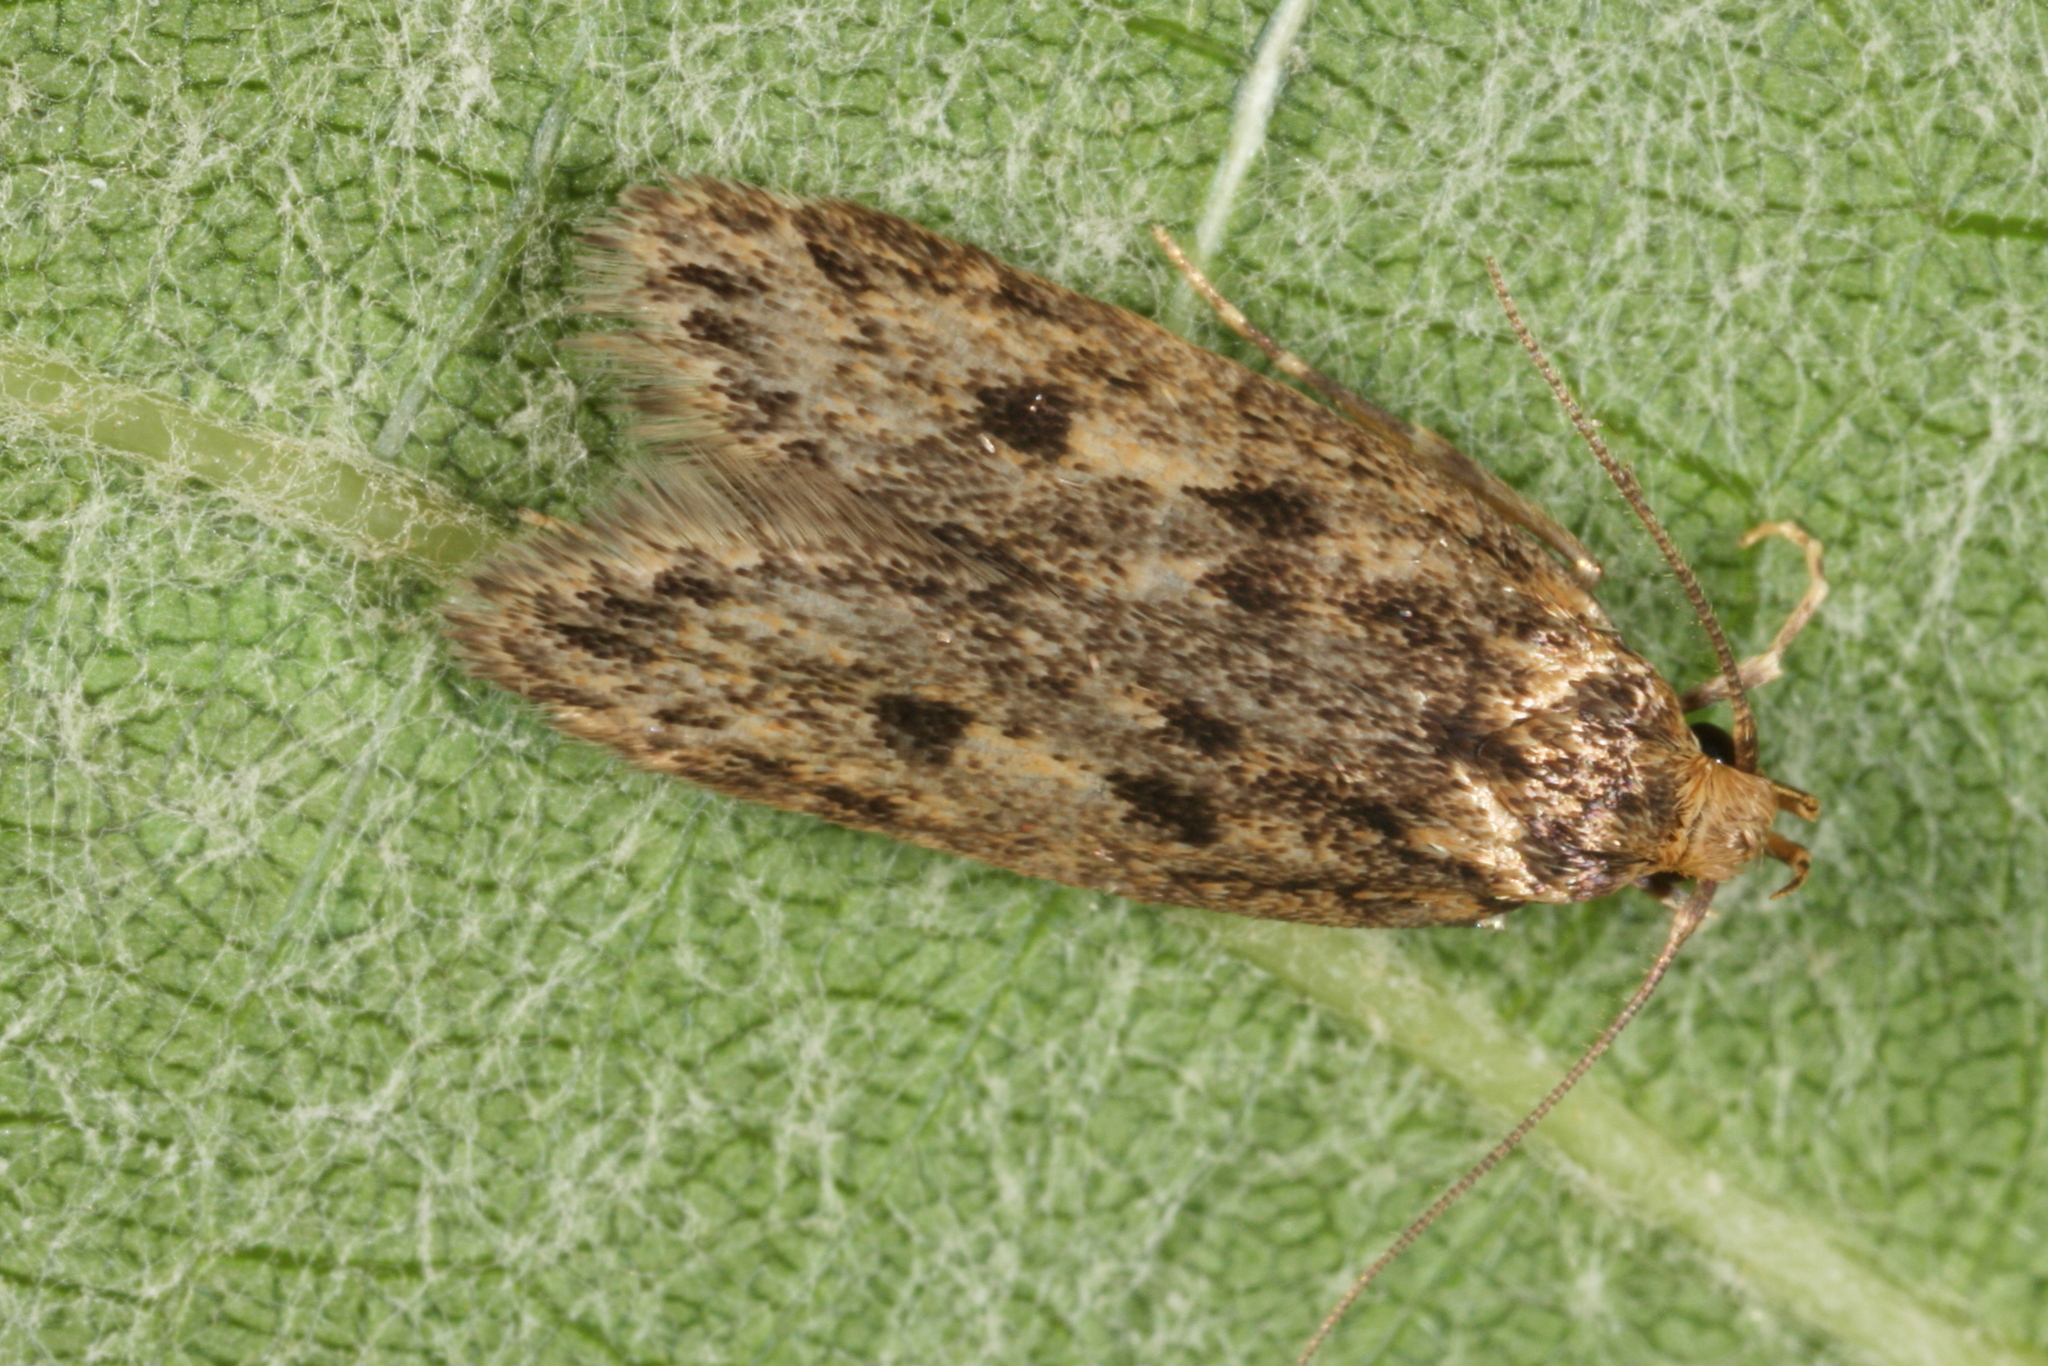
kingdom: Animalia
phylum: Arthropoda
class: Insecta
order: Lepidoptera
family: Oecophoridae
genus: Hofmannophila
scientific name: Hofmannophila pseudospretella
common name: Brown house moth
